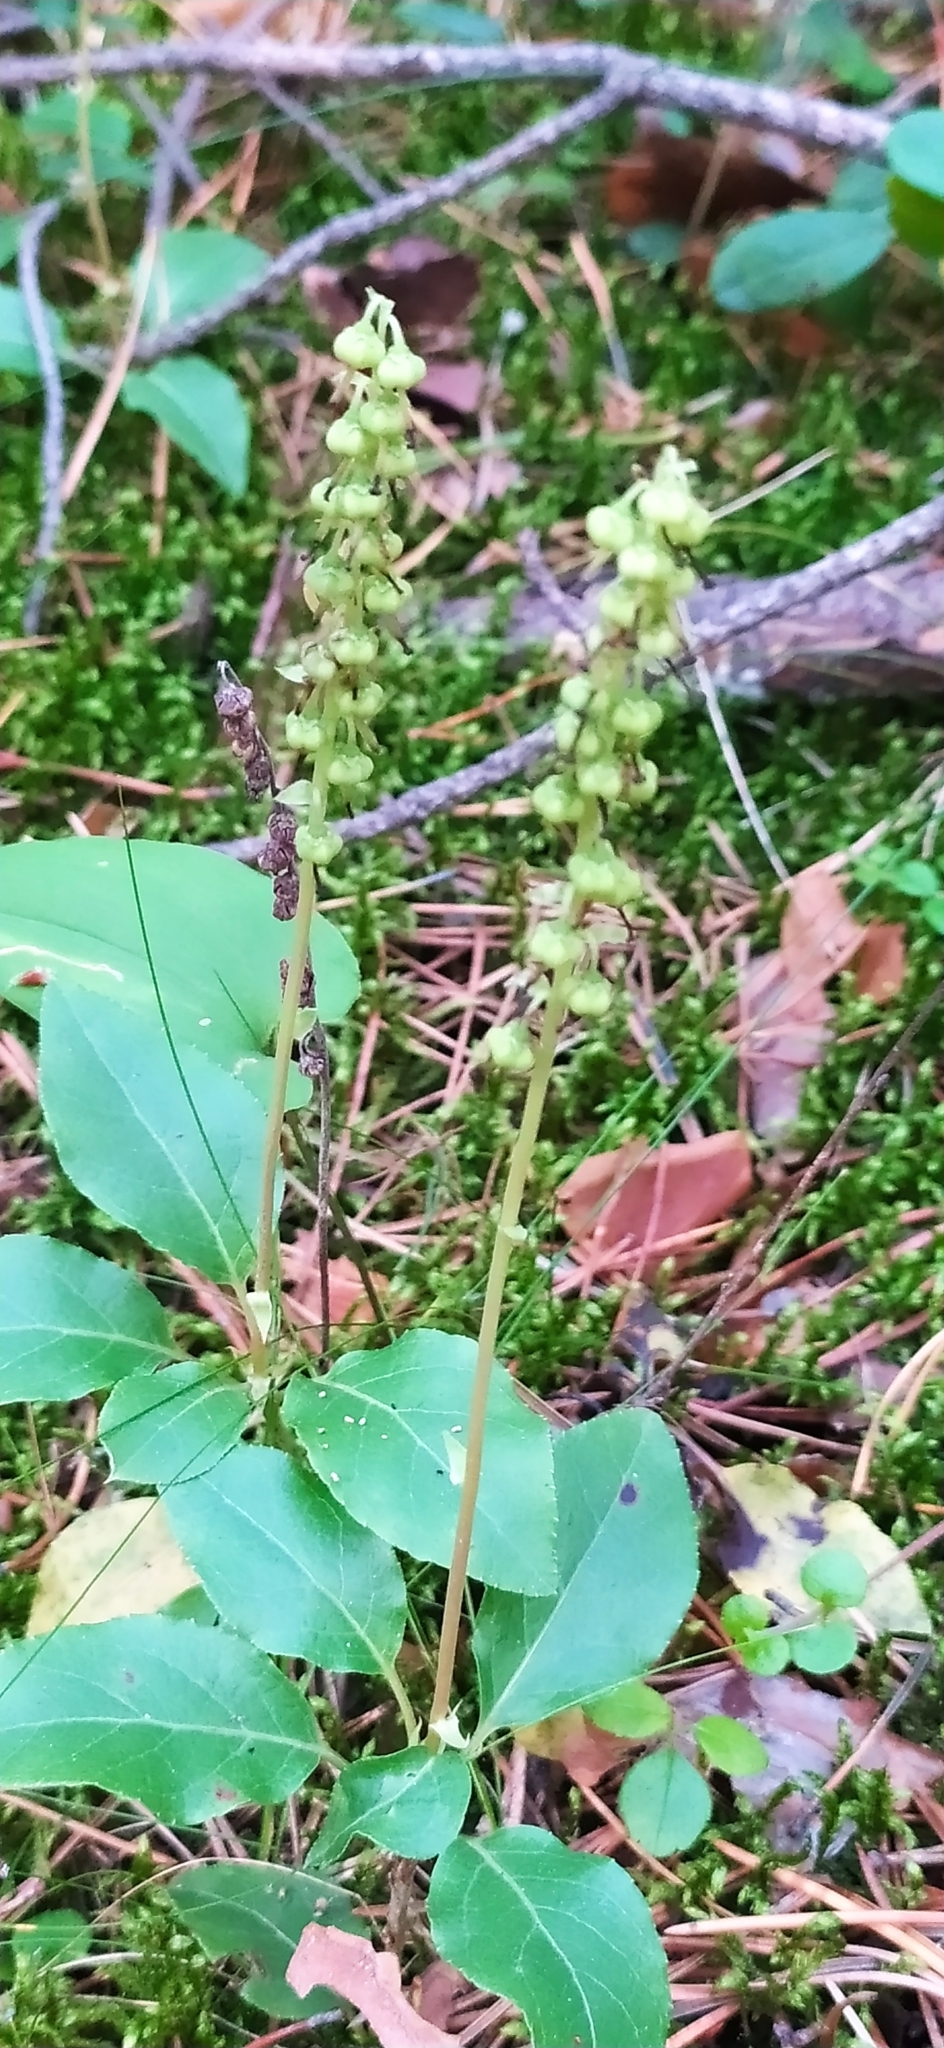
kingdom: Plantae
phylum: Tracheophyta
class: Magnoliopsida
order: Ericales
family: Ericaceae
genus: Orthilia
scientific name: Orthilia secunda
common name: One-sided orthilia
